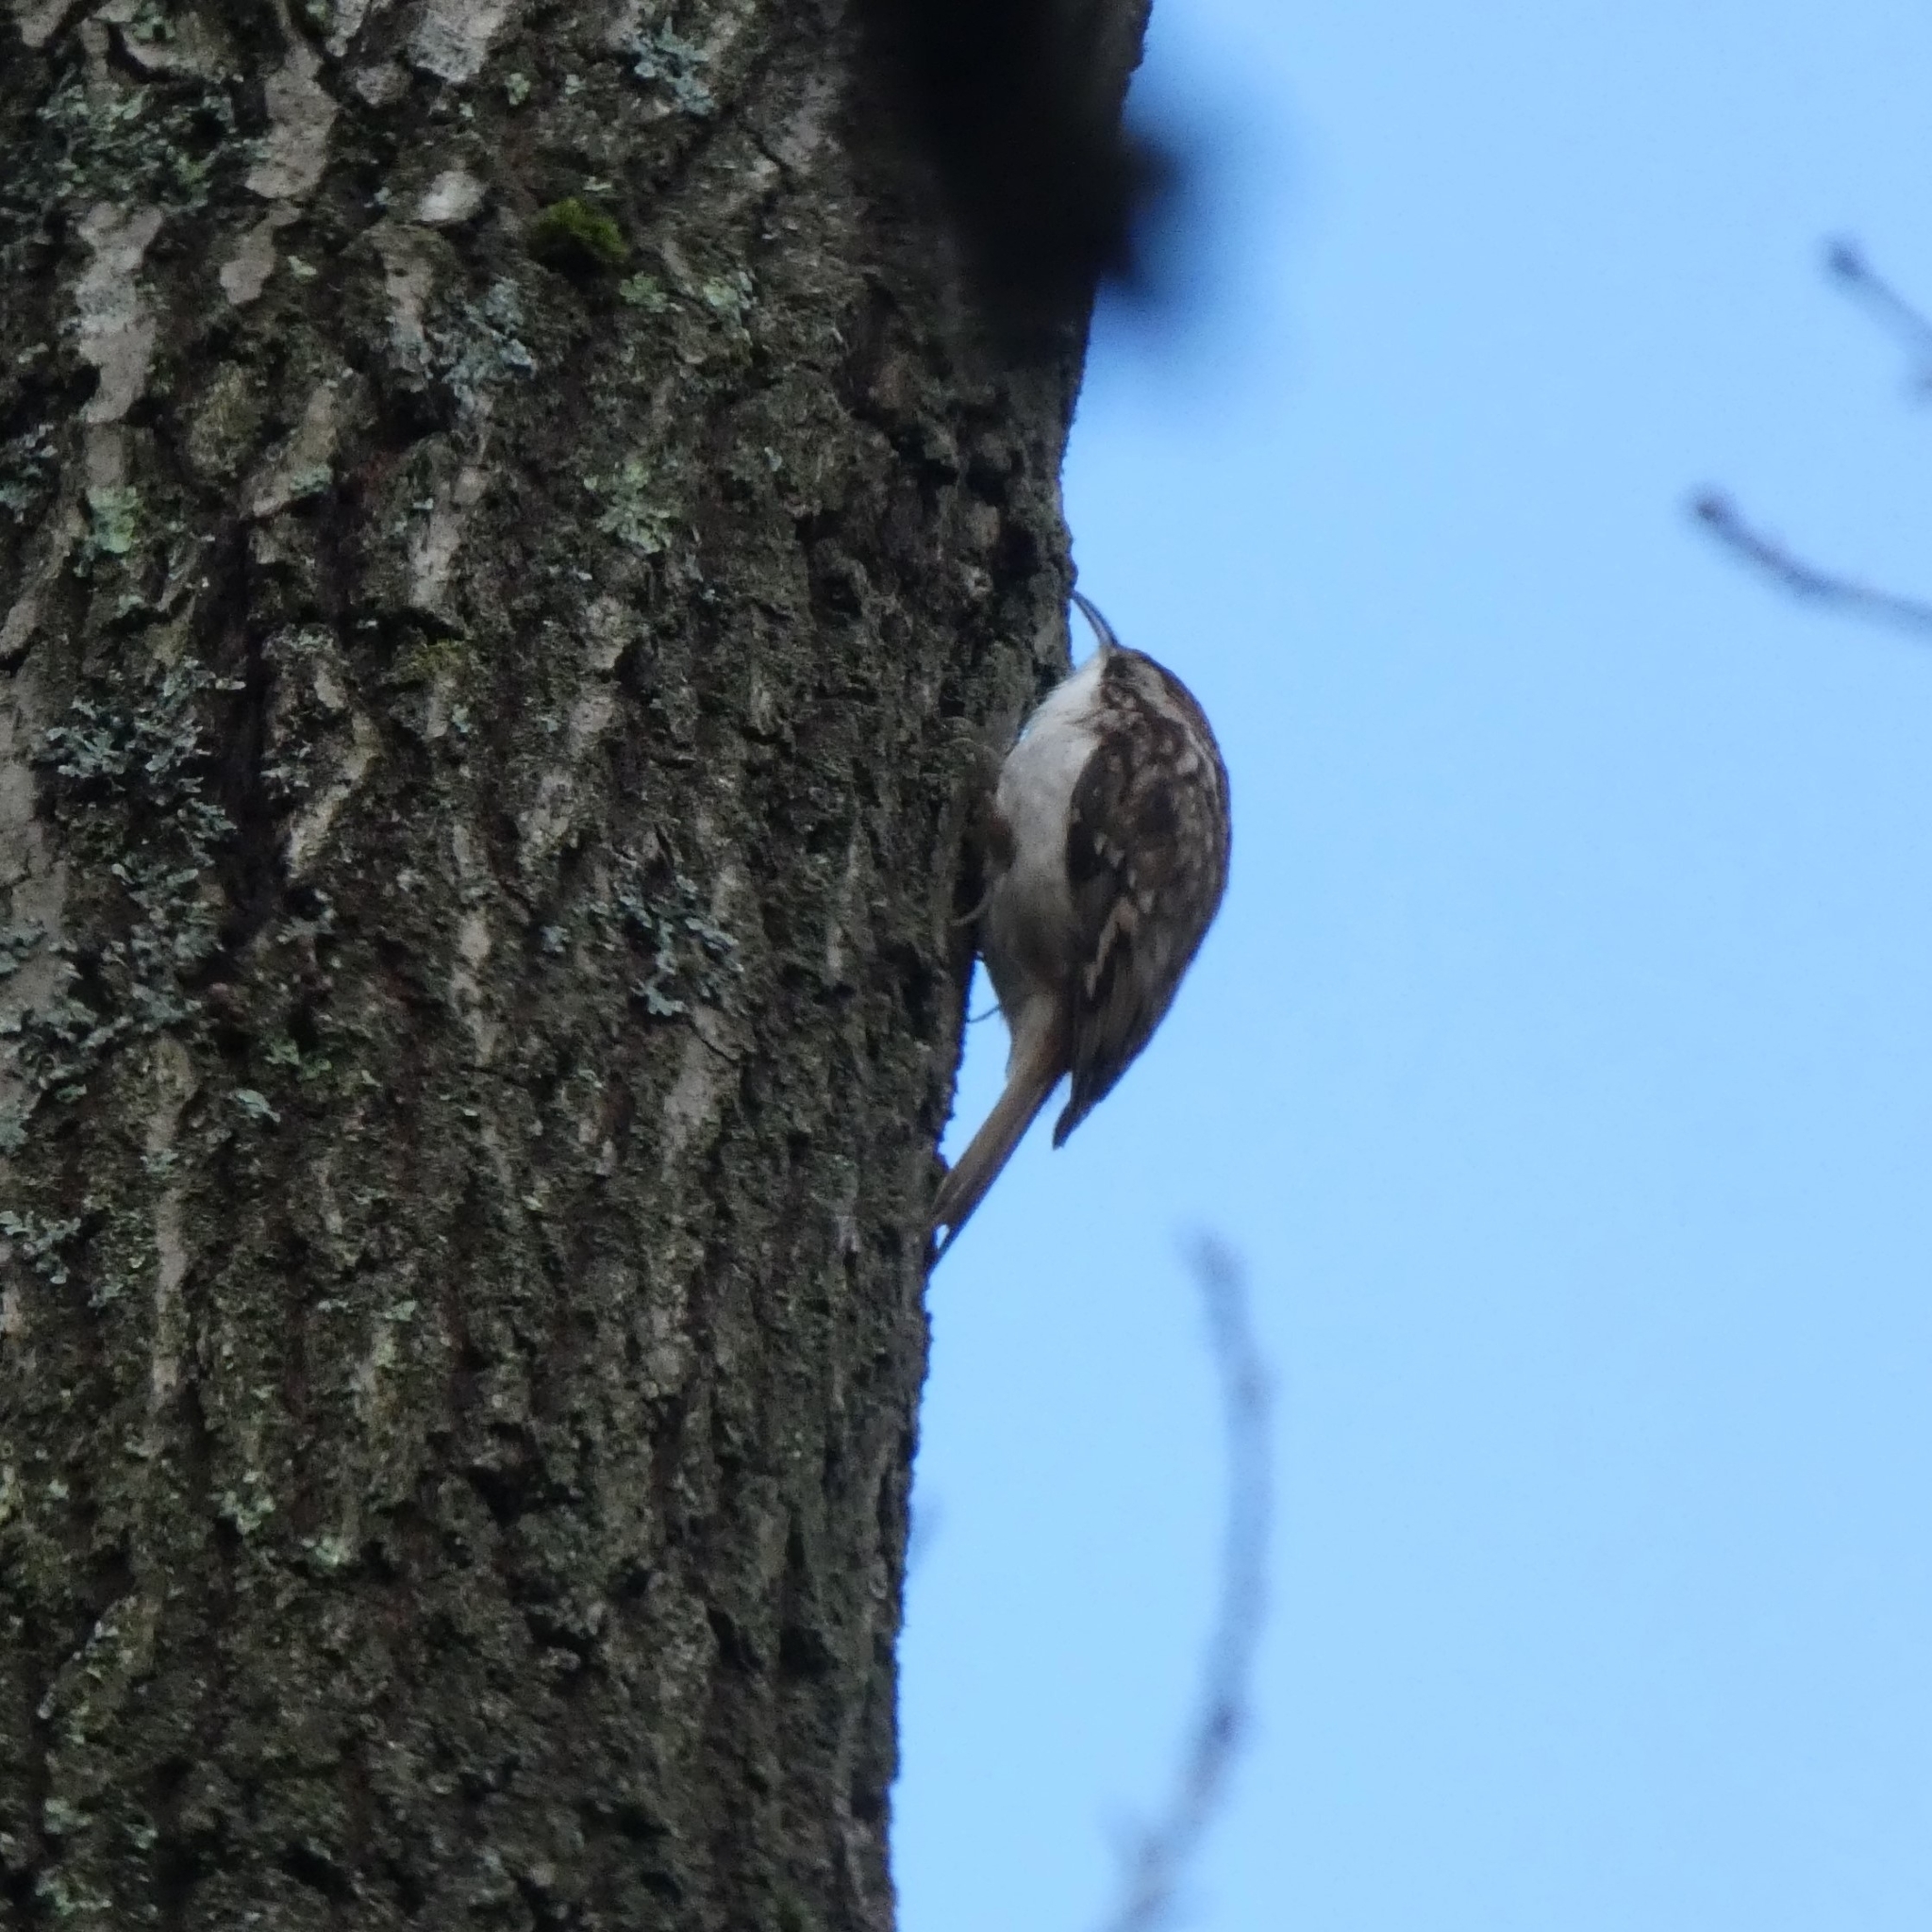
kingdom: Animalia
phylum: Chordata
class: Aves
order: Passeriformes
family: Certhiidae
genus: Certhia
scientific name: Certhia familiaris
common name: Eurasian treecreeper
